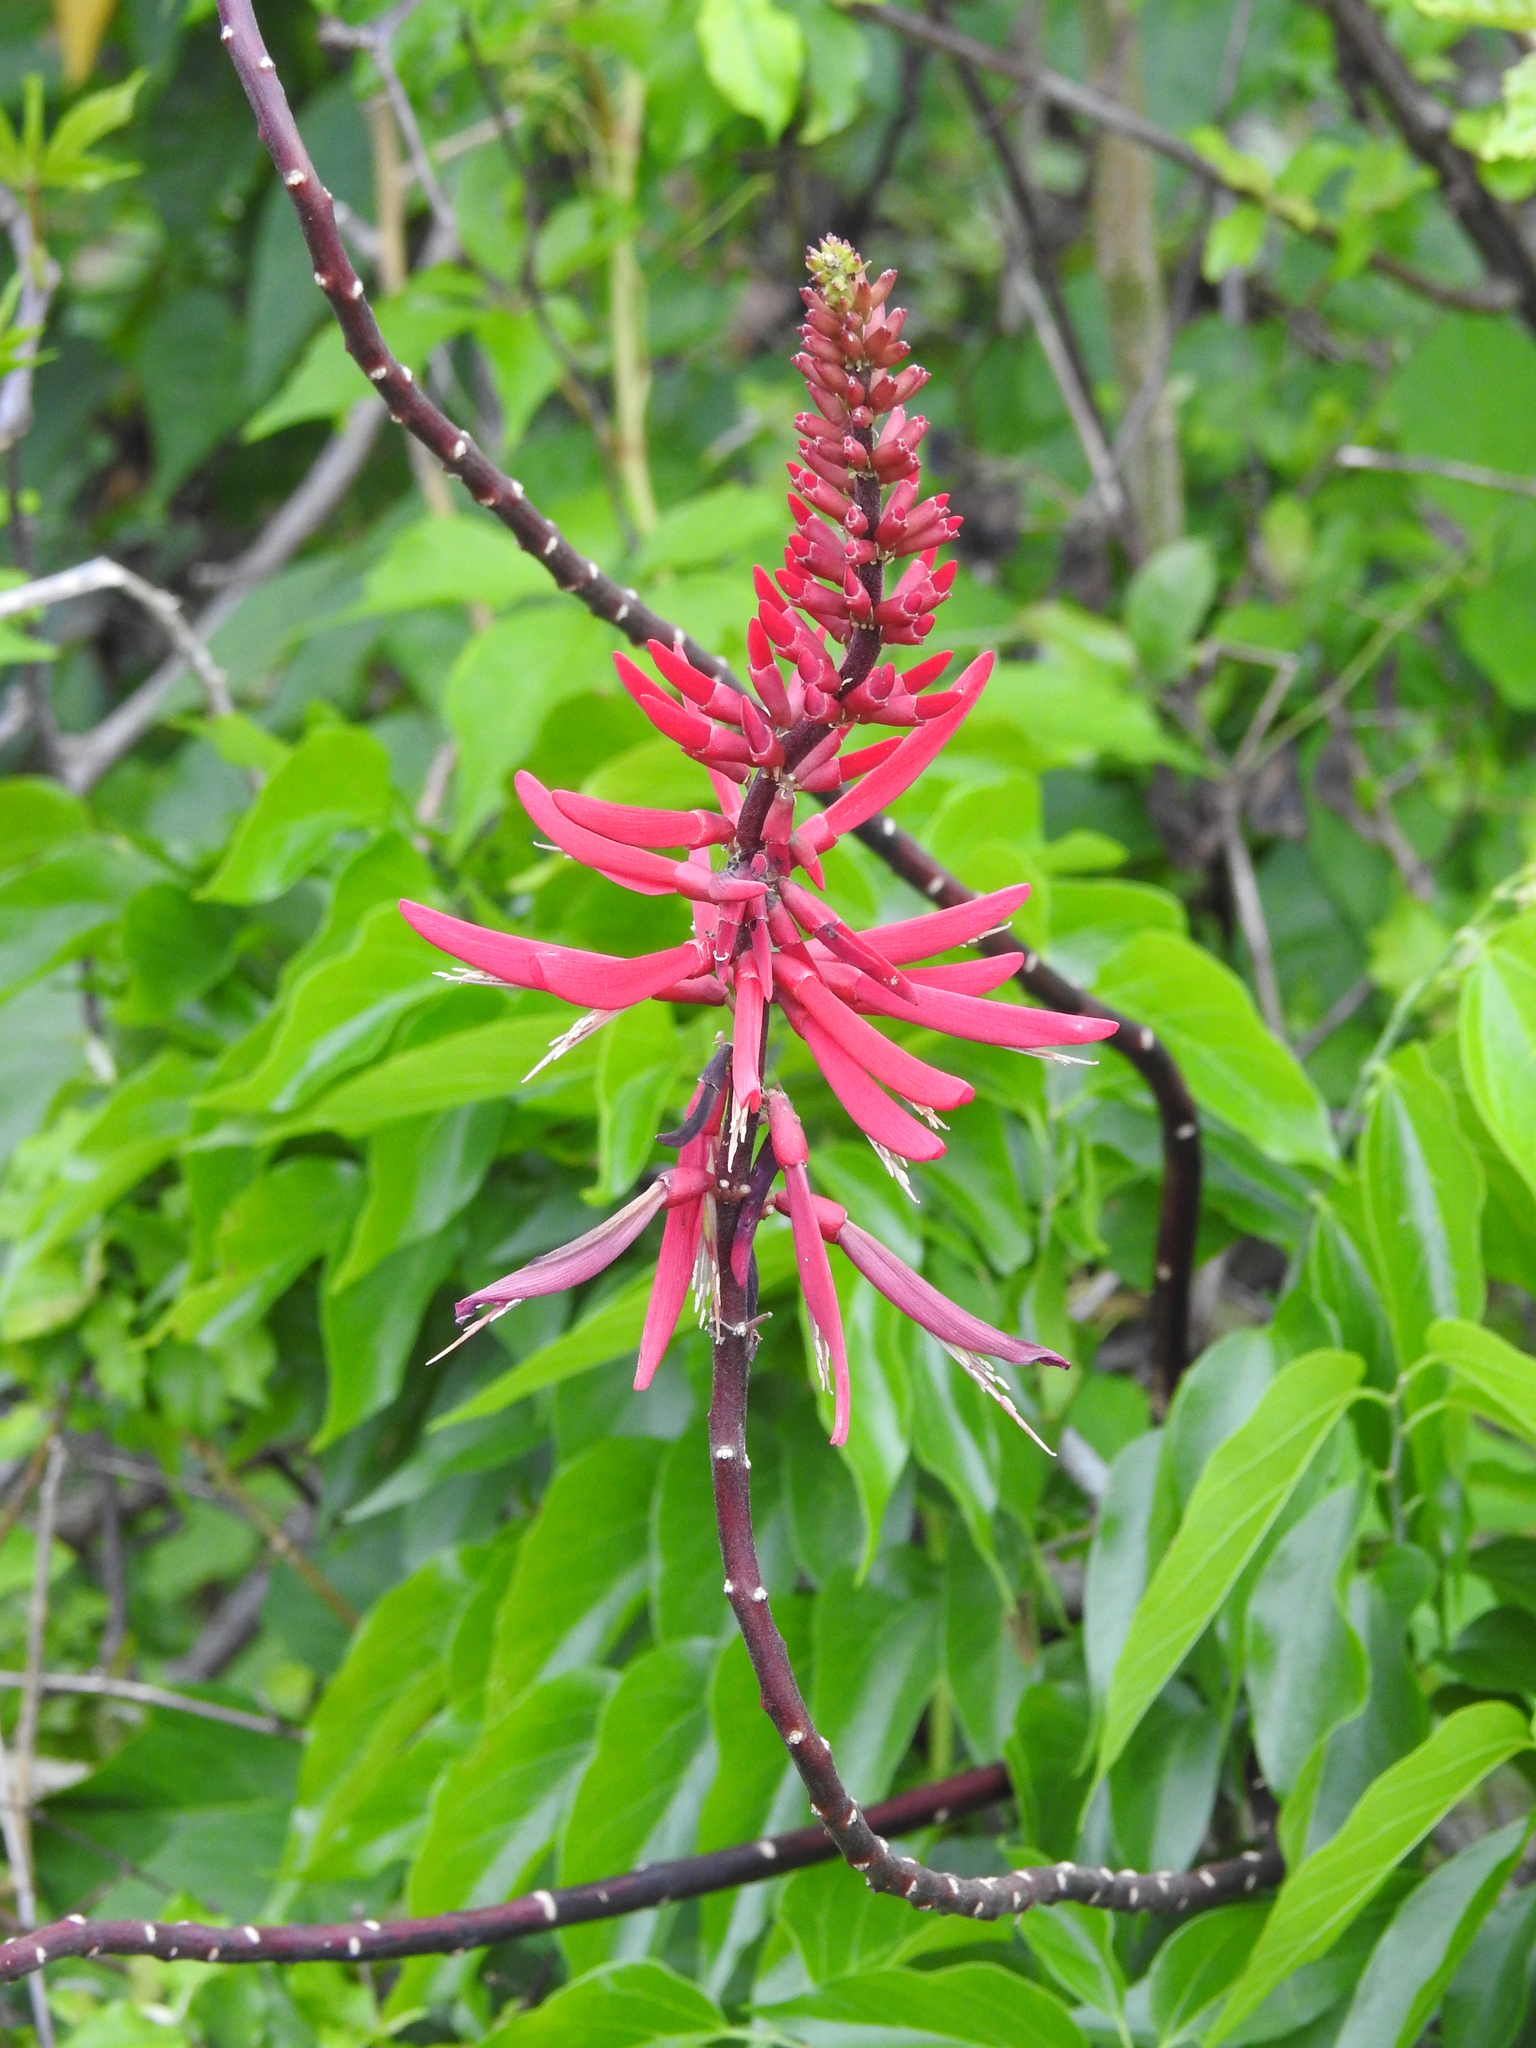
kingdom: Plantae
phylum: Tracheophyta
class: Magnoliopsida
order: Fabales
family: Fabaceae
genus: Erythrina
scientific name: Erythrina herbacea
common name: Coral-bean
